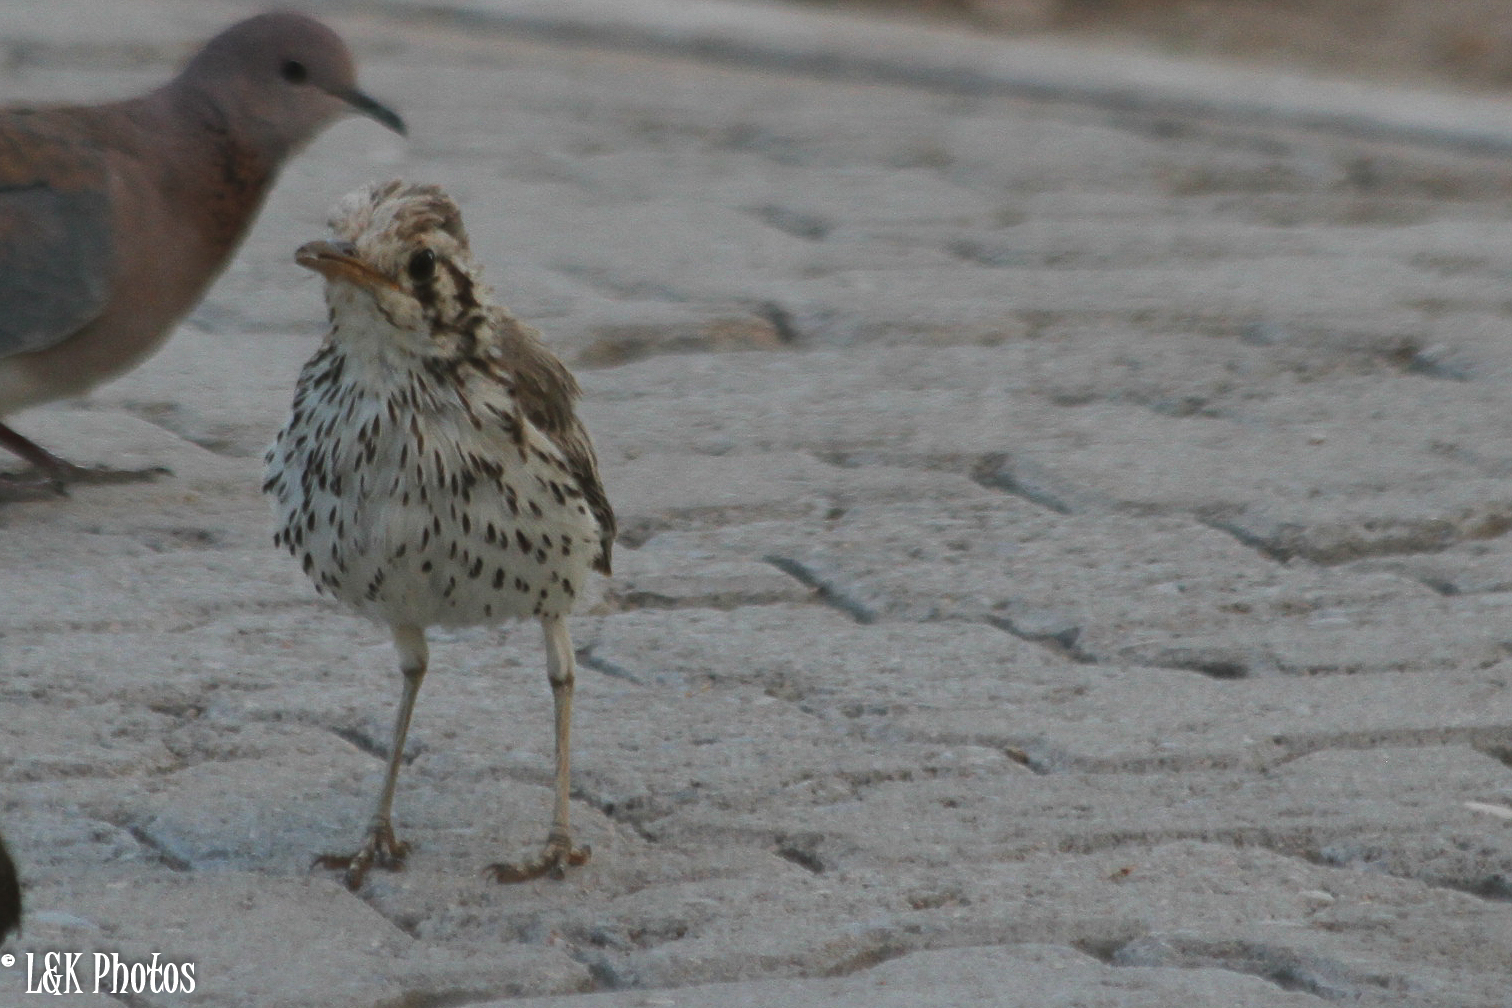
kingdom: Animalia
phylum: Chordata
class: Aves
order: Passeriformes
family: Turdidae
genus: Psophocichla
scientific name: Psophocichla litsitsirupa
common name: Groundscraper thrush
